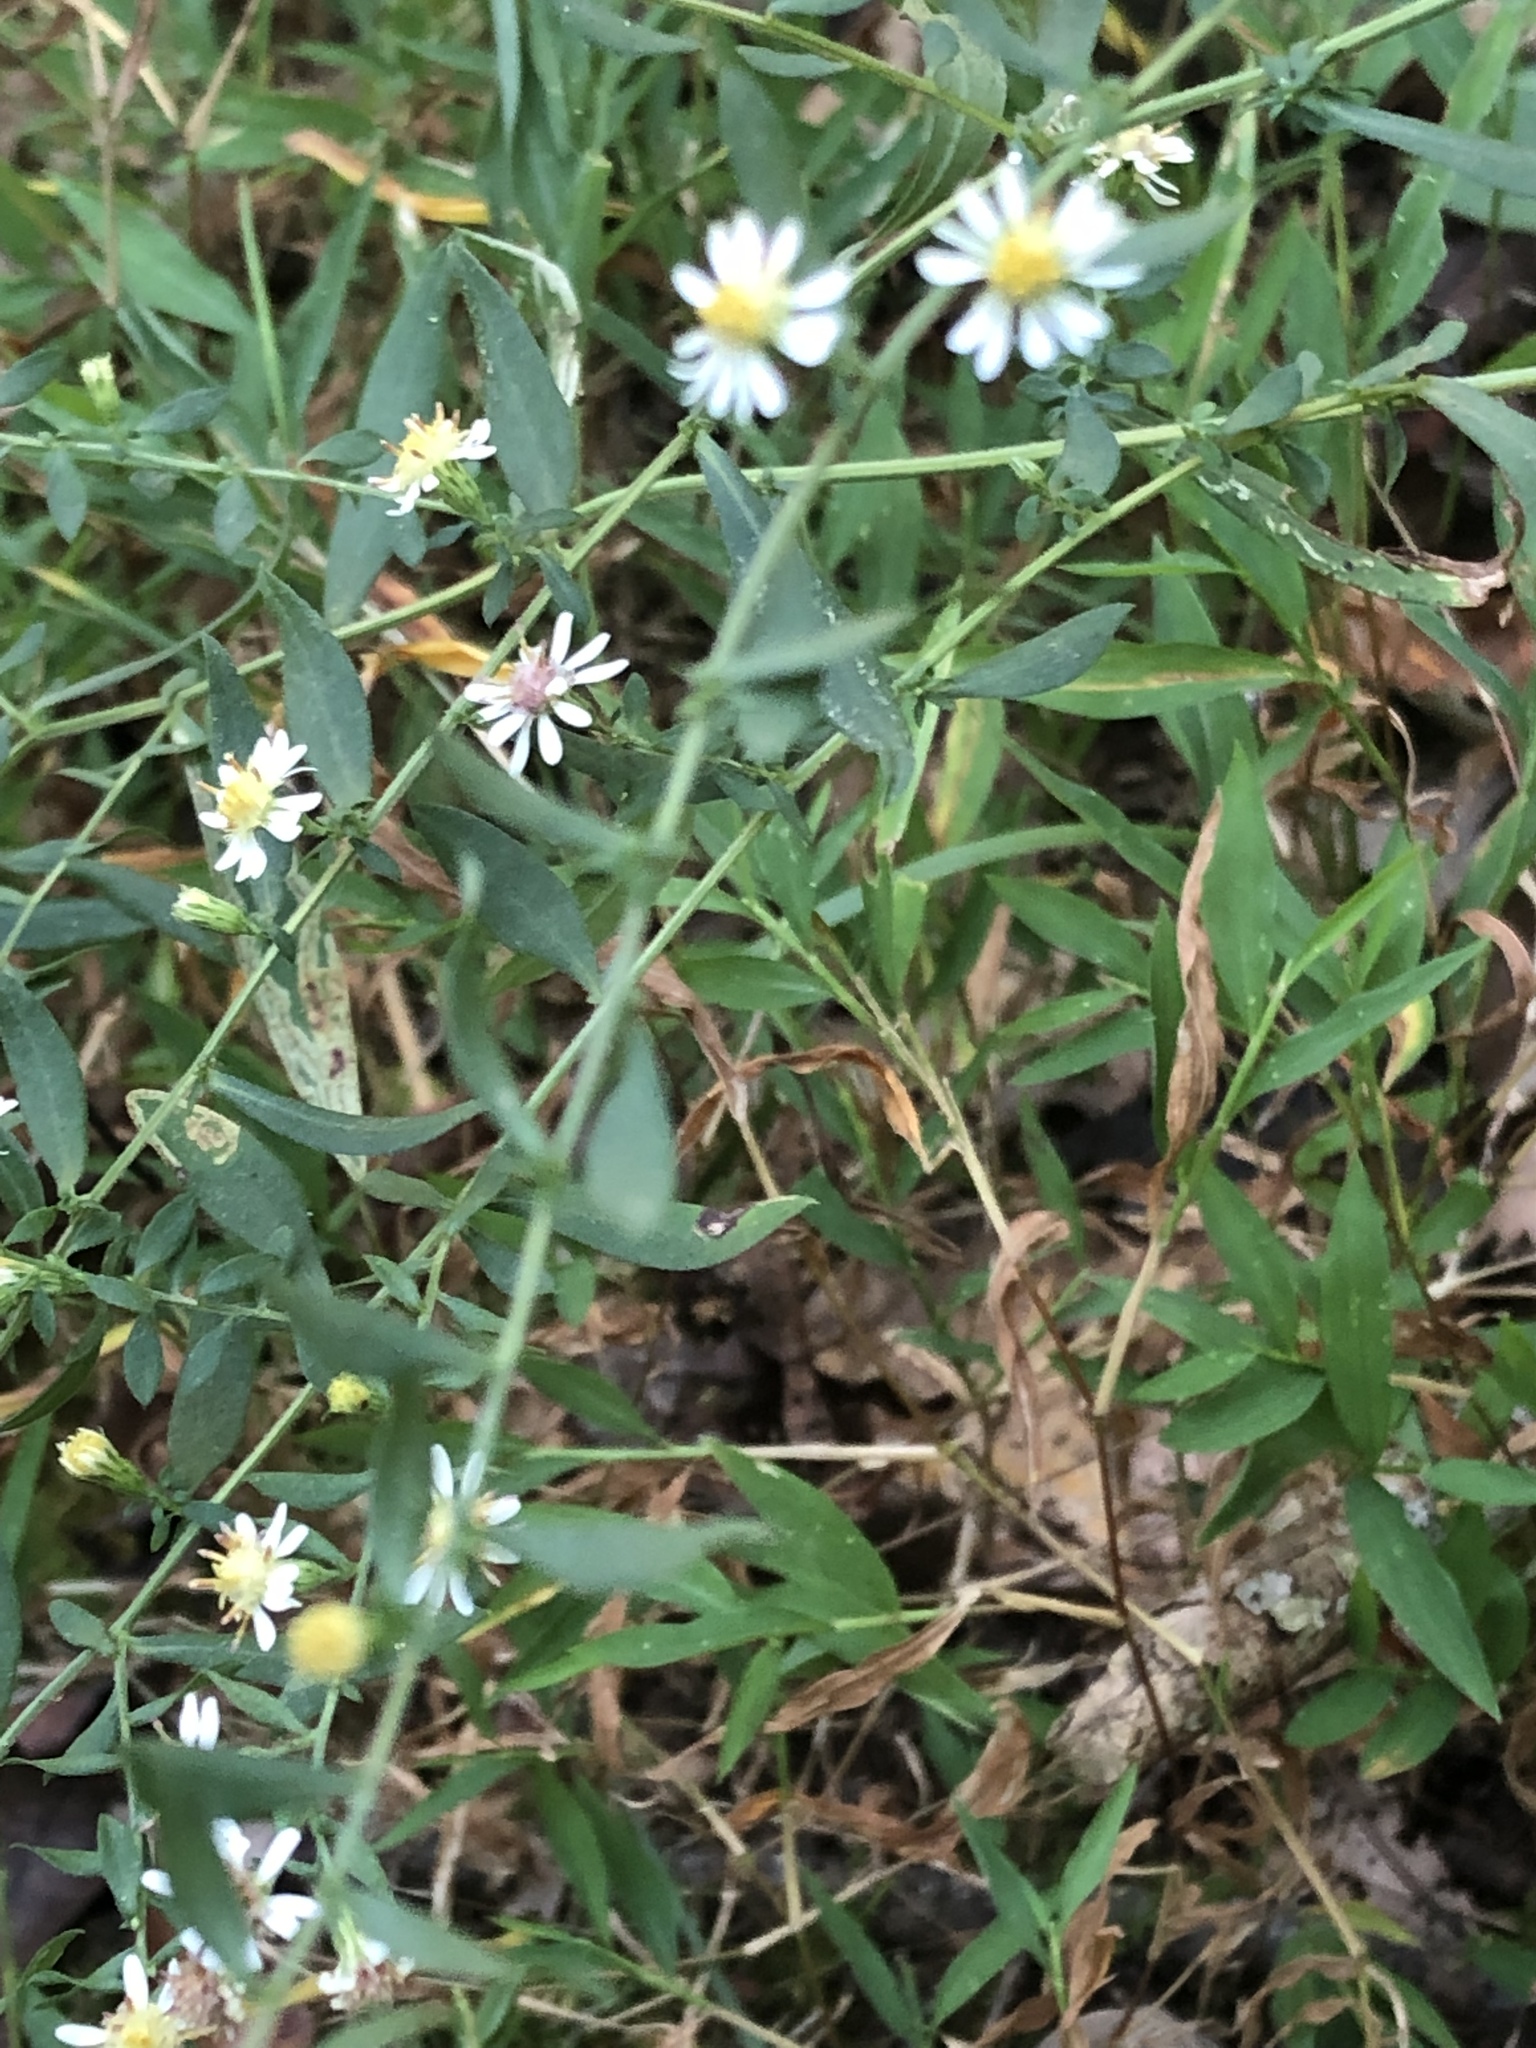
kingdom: Plantae
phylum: Tracheophyta
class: Magnoliopsida
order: Asterales
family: Asteraceae
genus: Symphyotrichum
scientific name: Symphyotrichum lateriflorum
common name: Calico aster
